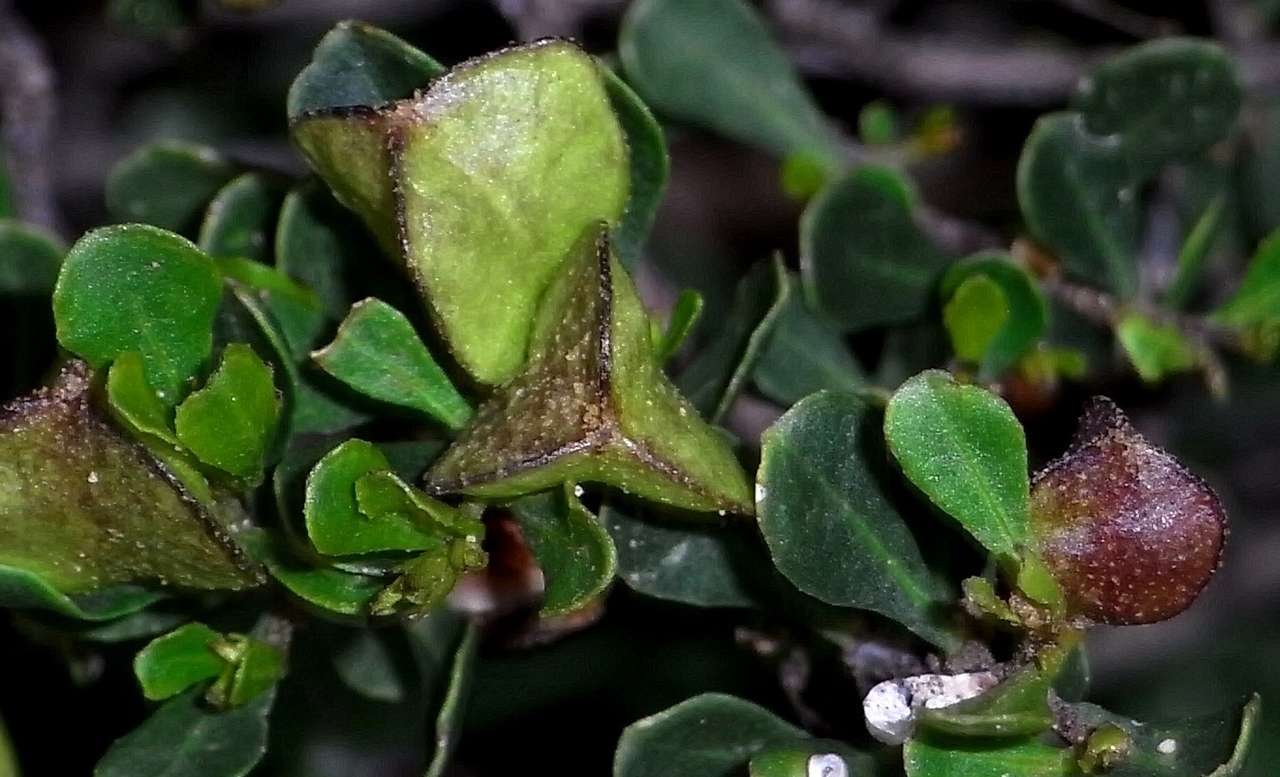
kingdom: Plantae
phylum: Tracheophyta
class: Magnoliopsida
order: Sapindales
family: Sapindaceae
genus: Dodonaea
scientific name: Dodonaea bursariifolia
